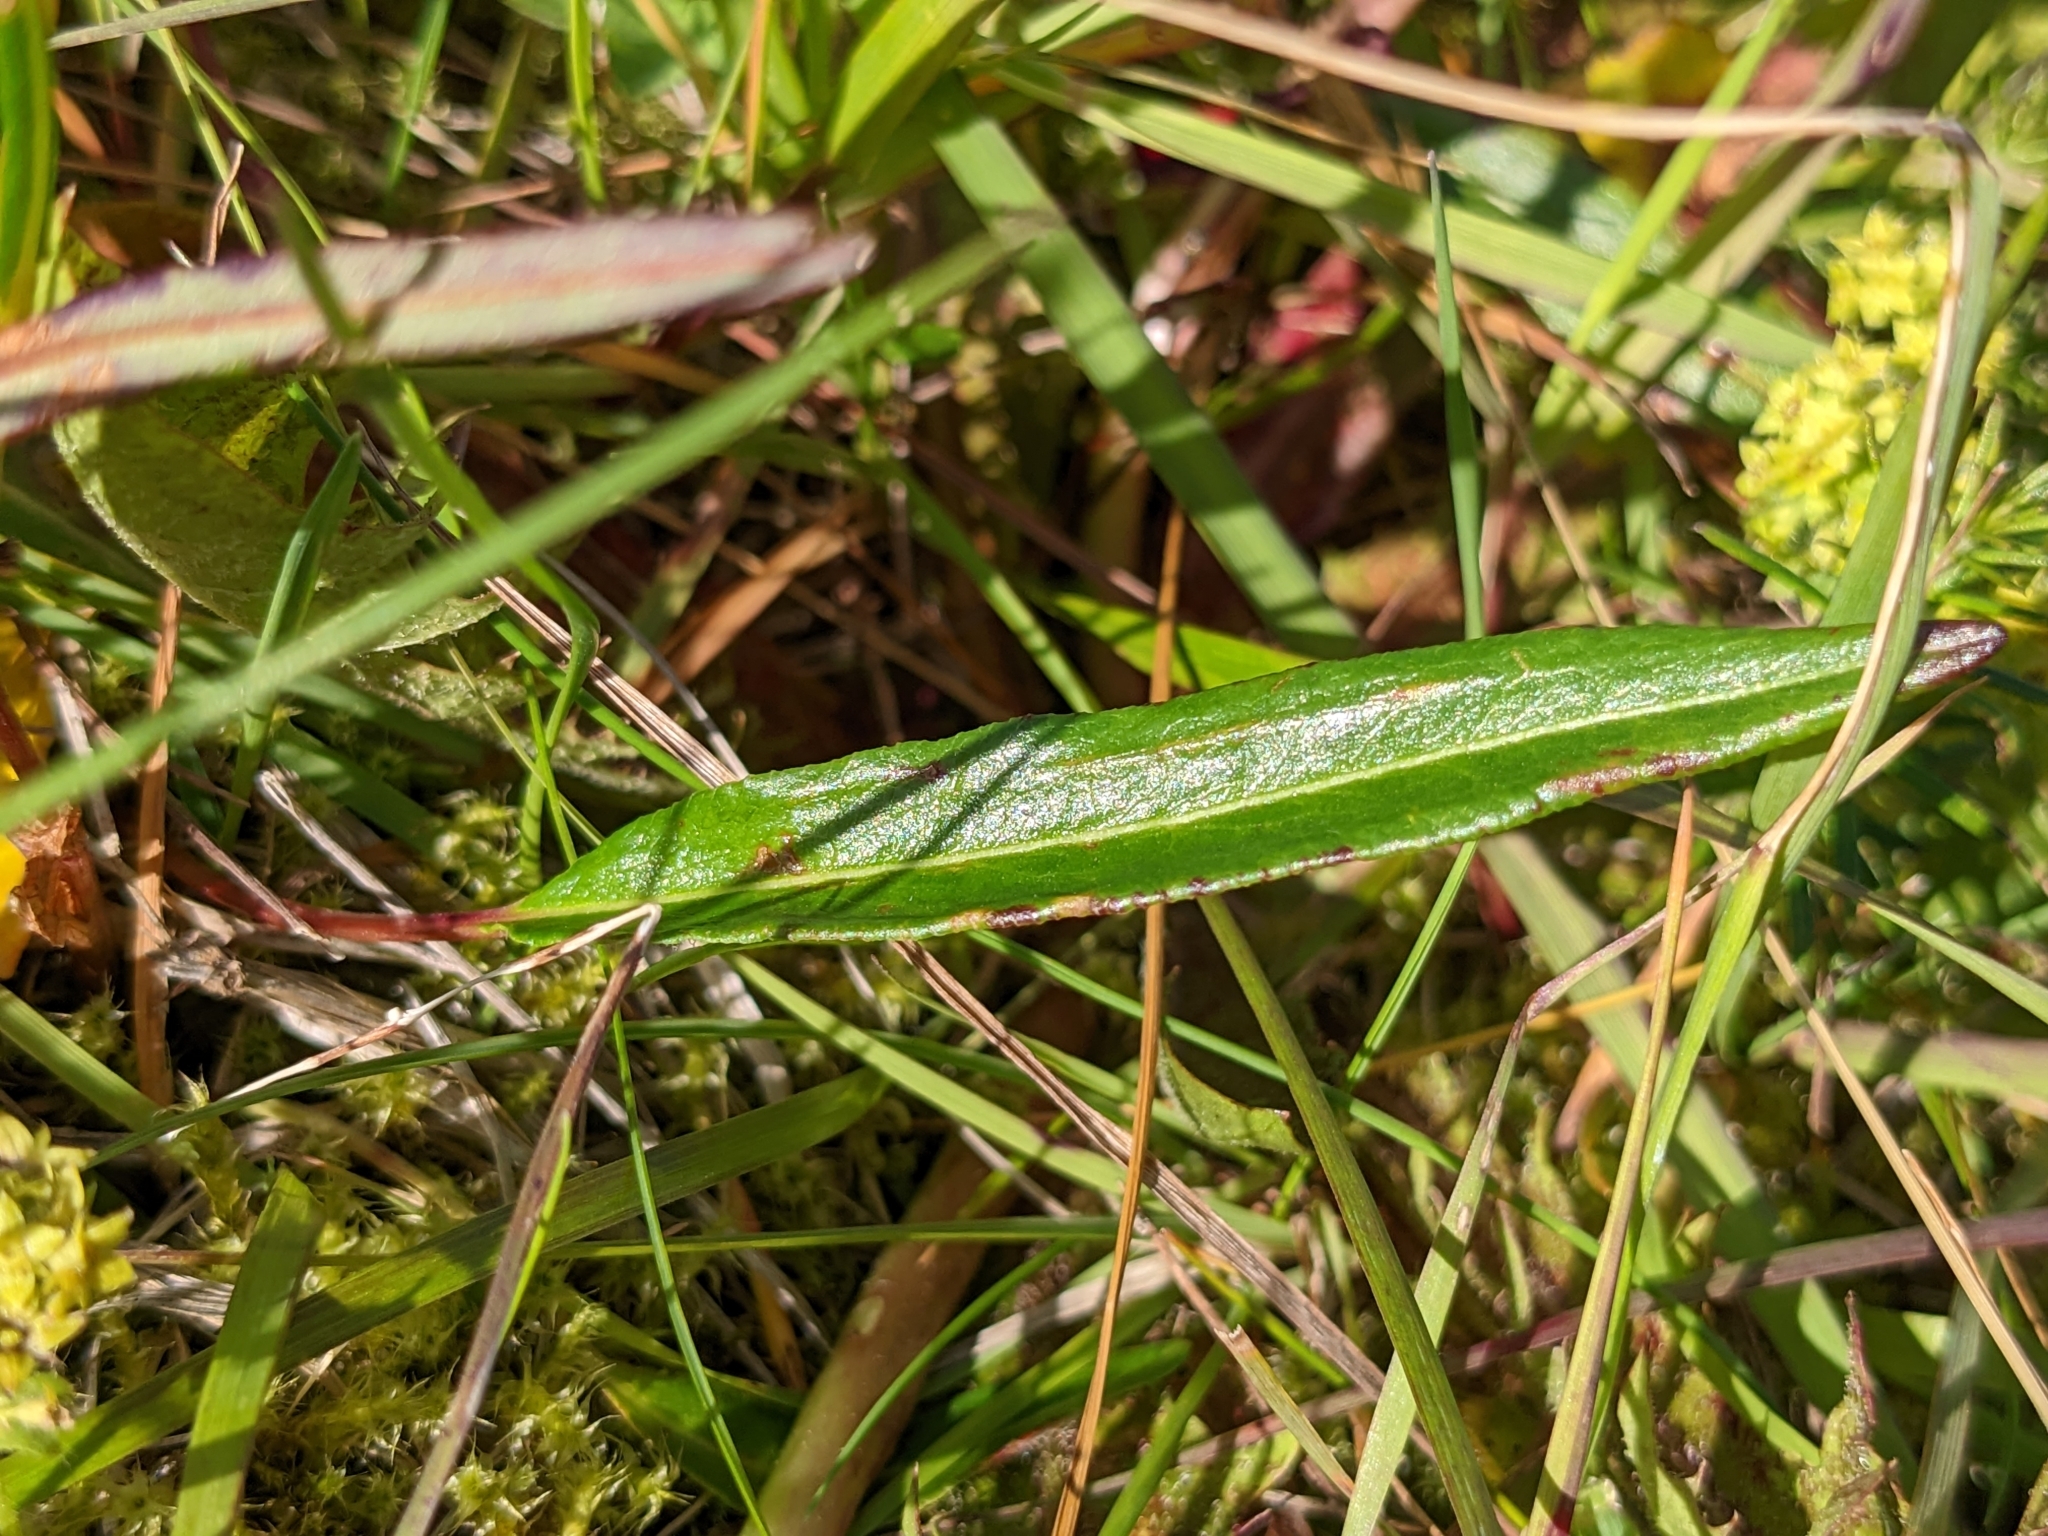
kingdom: Plantae
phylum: Tracheophyta
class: Magnoliopsida
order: Caryophyllales
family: Polygonaceae
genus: Bistorta
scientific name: Bistorta vivipara
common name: Alpine bistort
